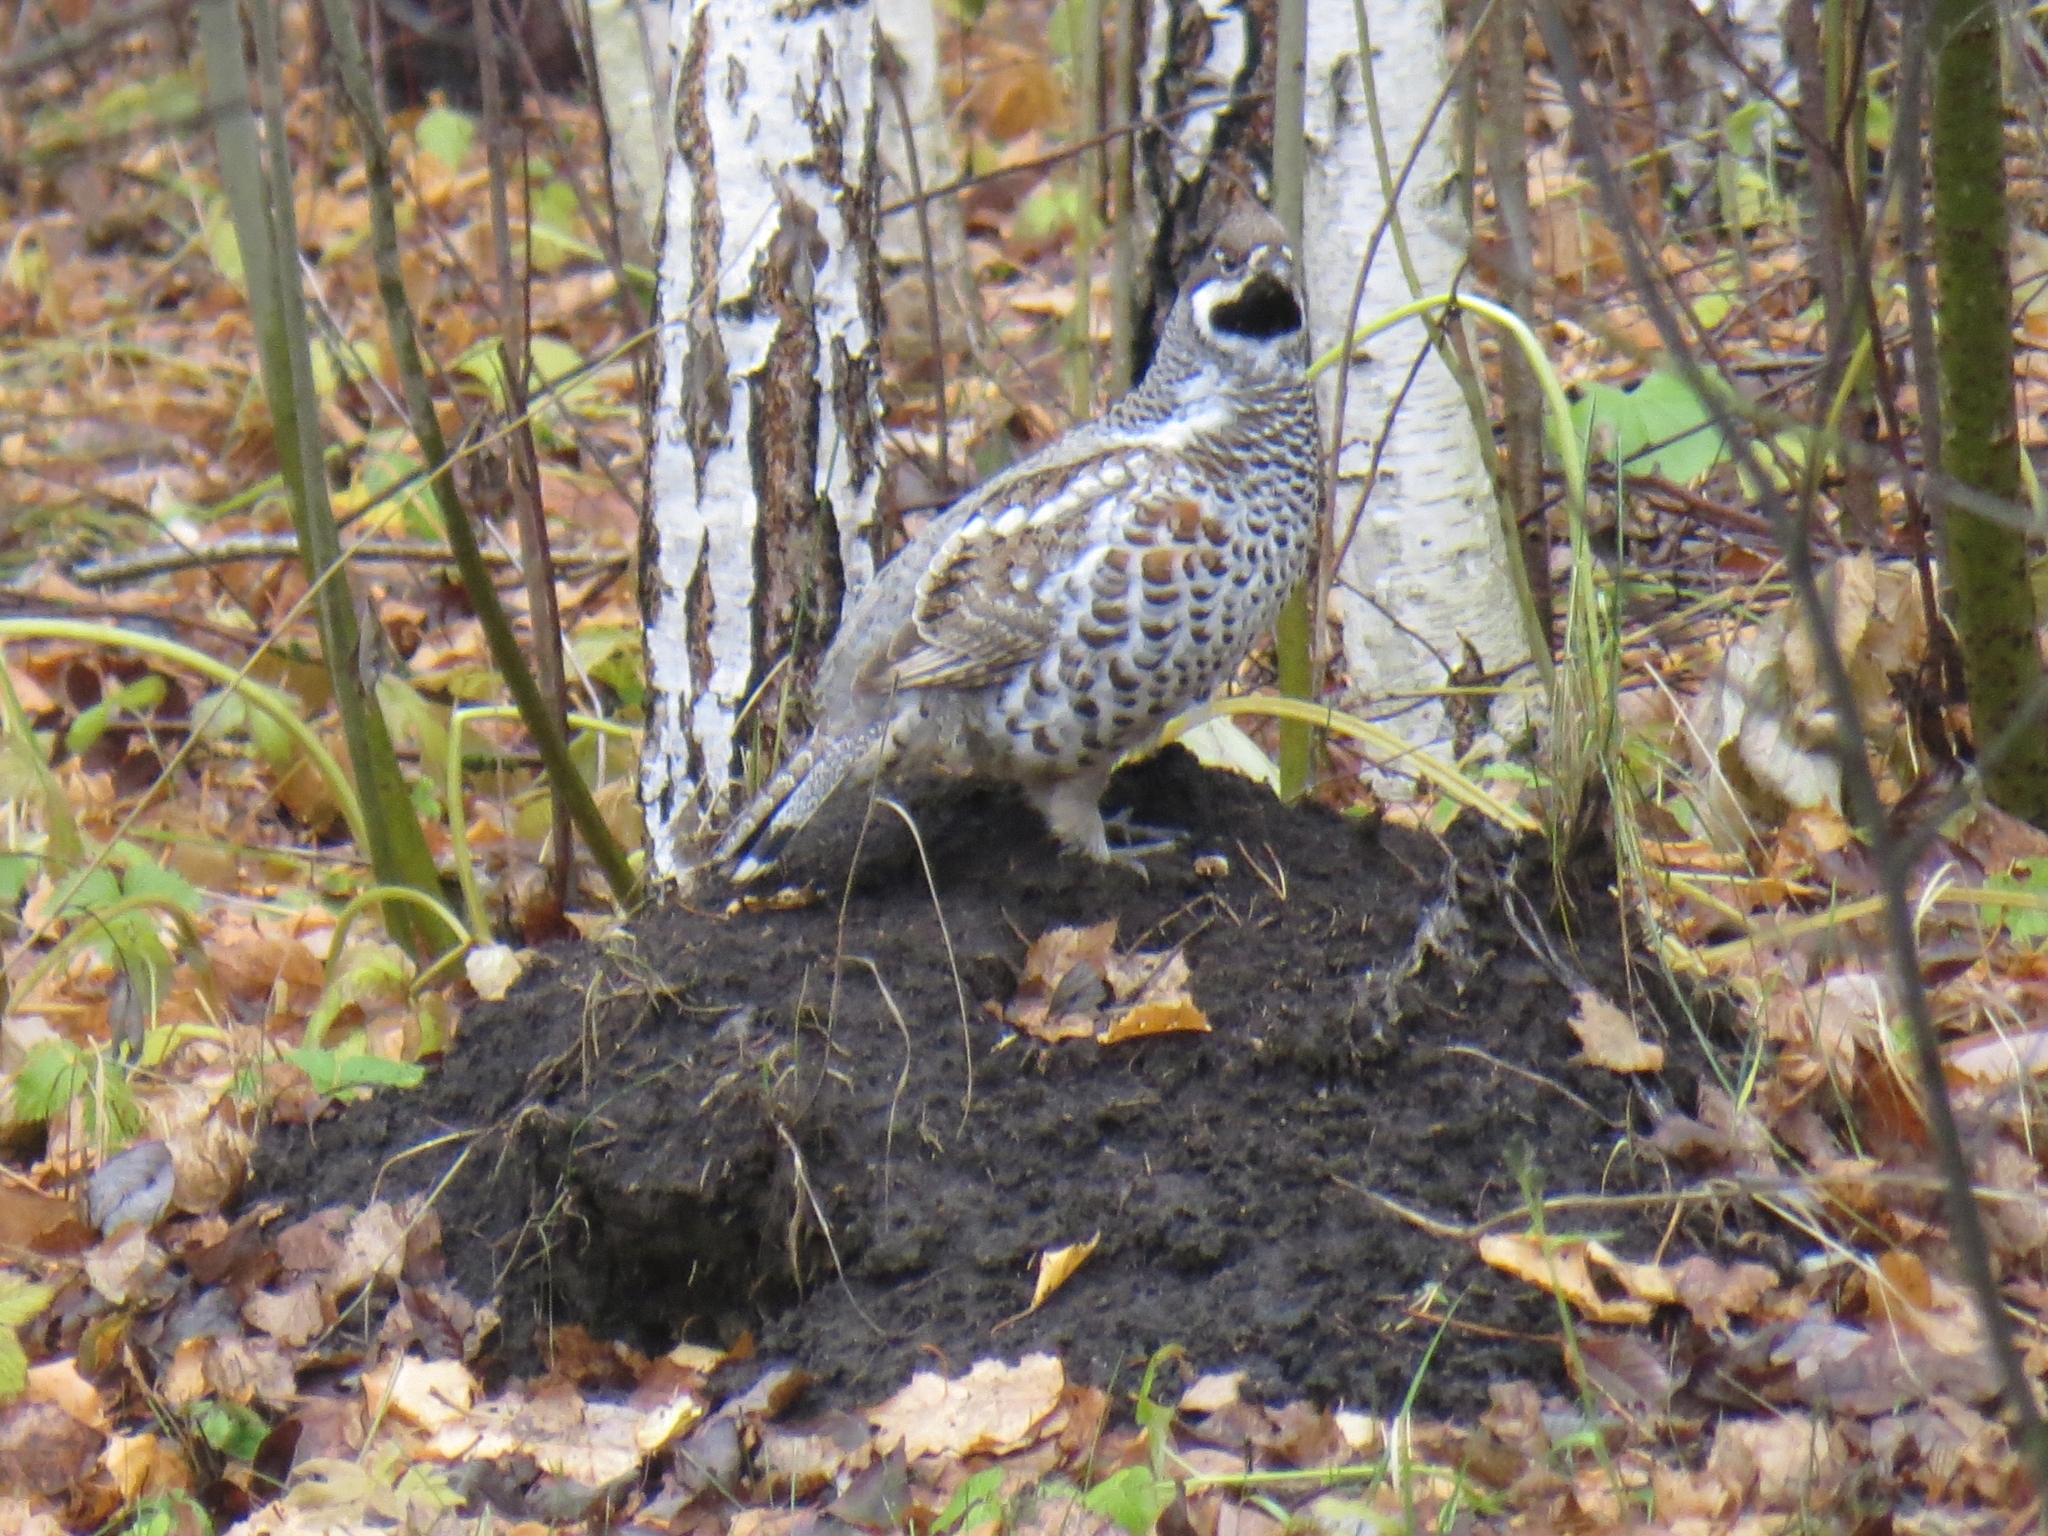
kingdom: Animalia
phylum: Chordata
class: Aves
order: Galliformes
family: Phasianidae
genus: Tetrastes
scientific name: Tetrastes bonasia
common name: Hazel grouse
